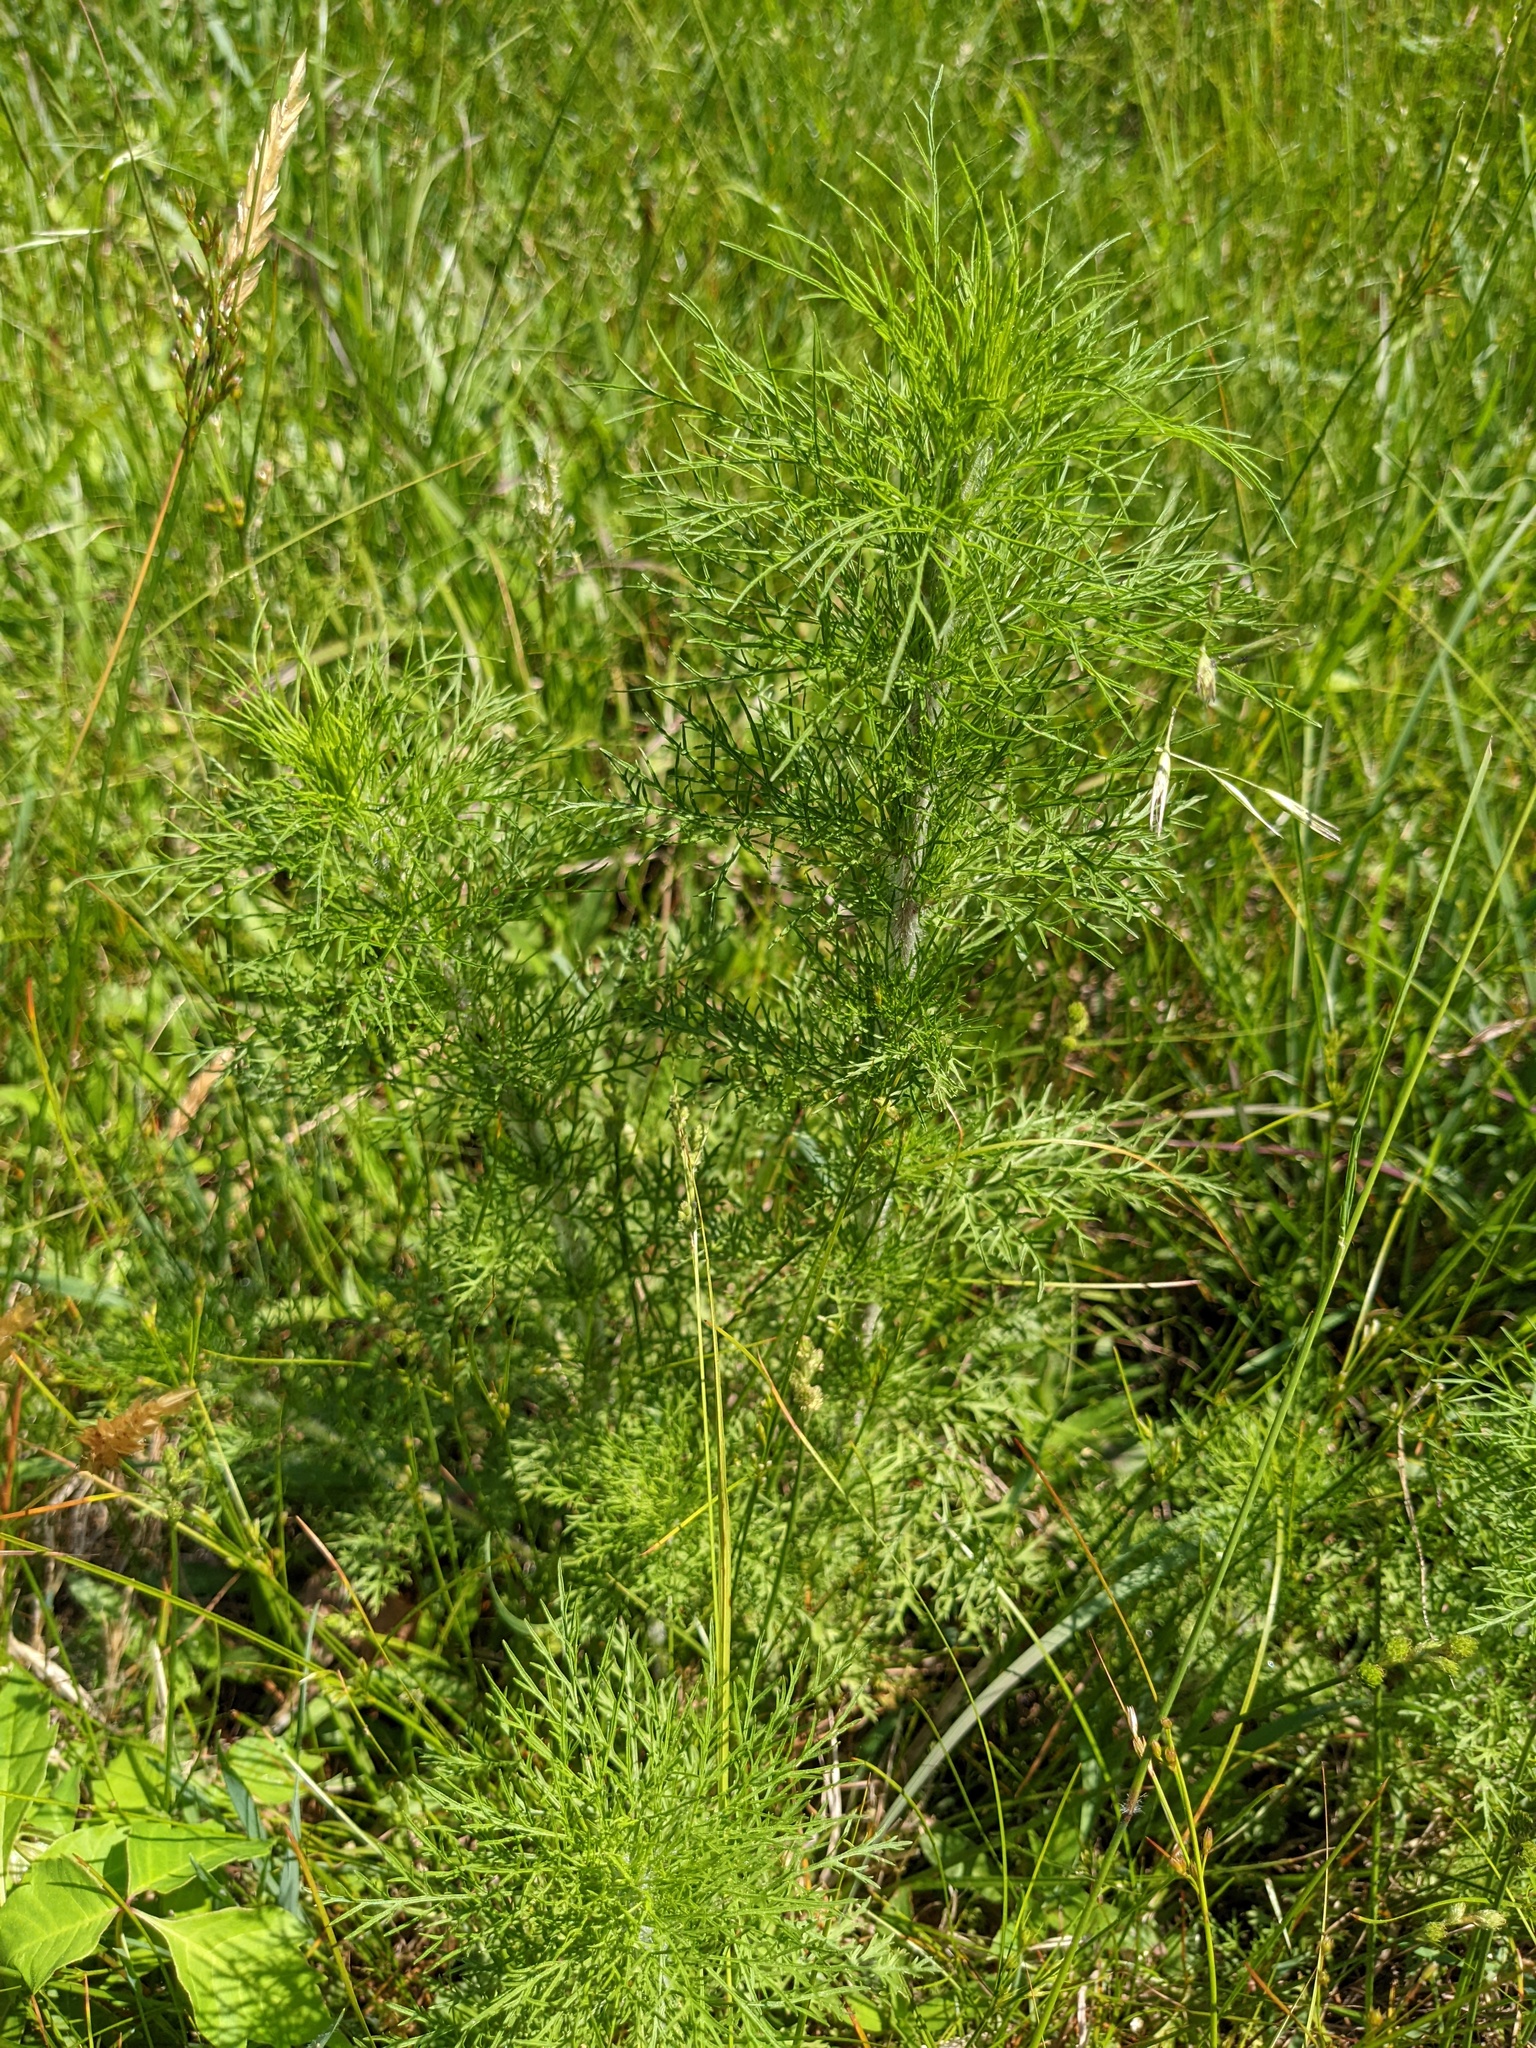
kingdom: Plantae
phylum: Tracheophyta
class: Magnoliopsida
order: Asterales
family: Asteraceae
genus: Eupatorium
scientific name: Eupatorium capillifolium
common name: Dog-fennel
